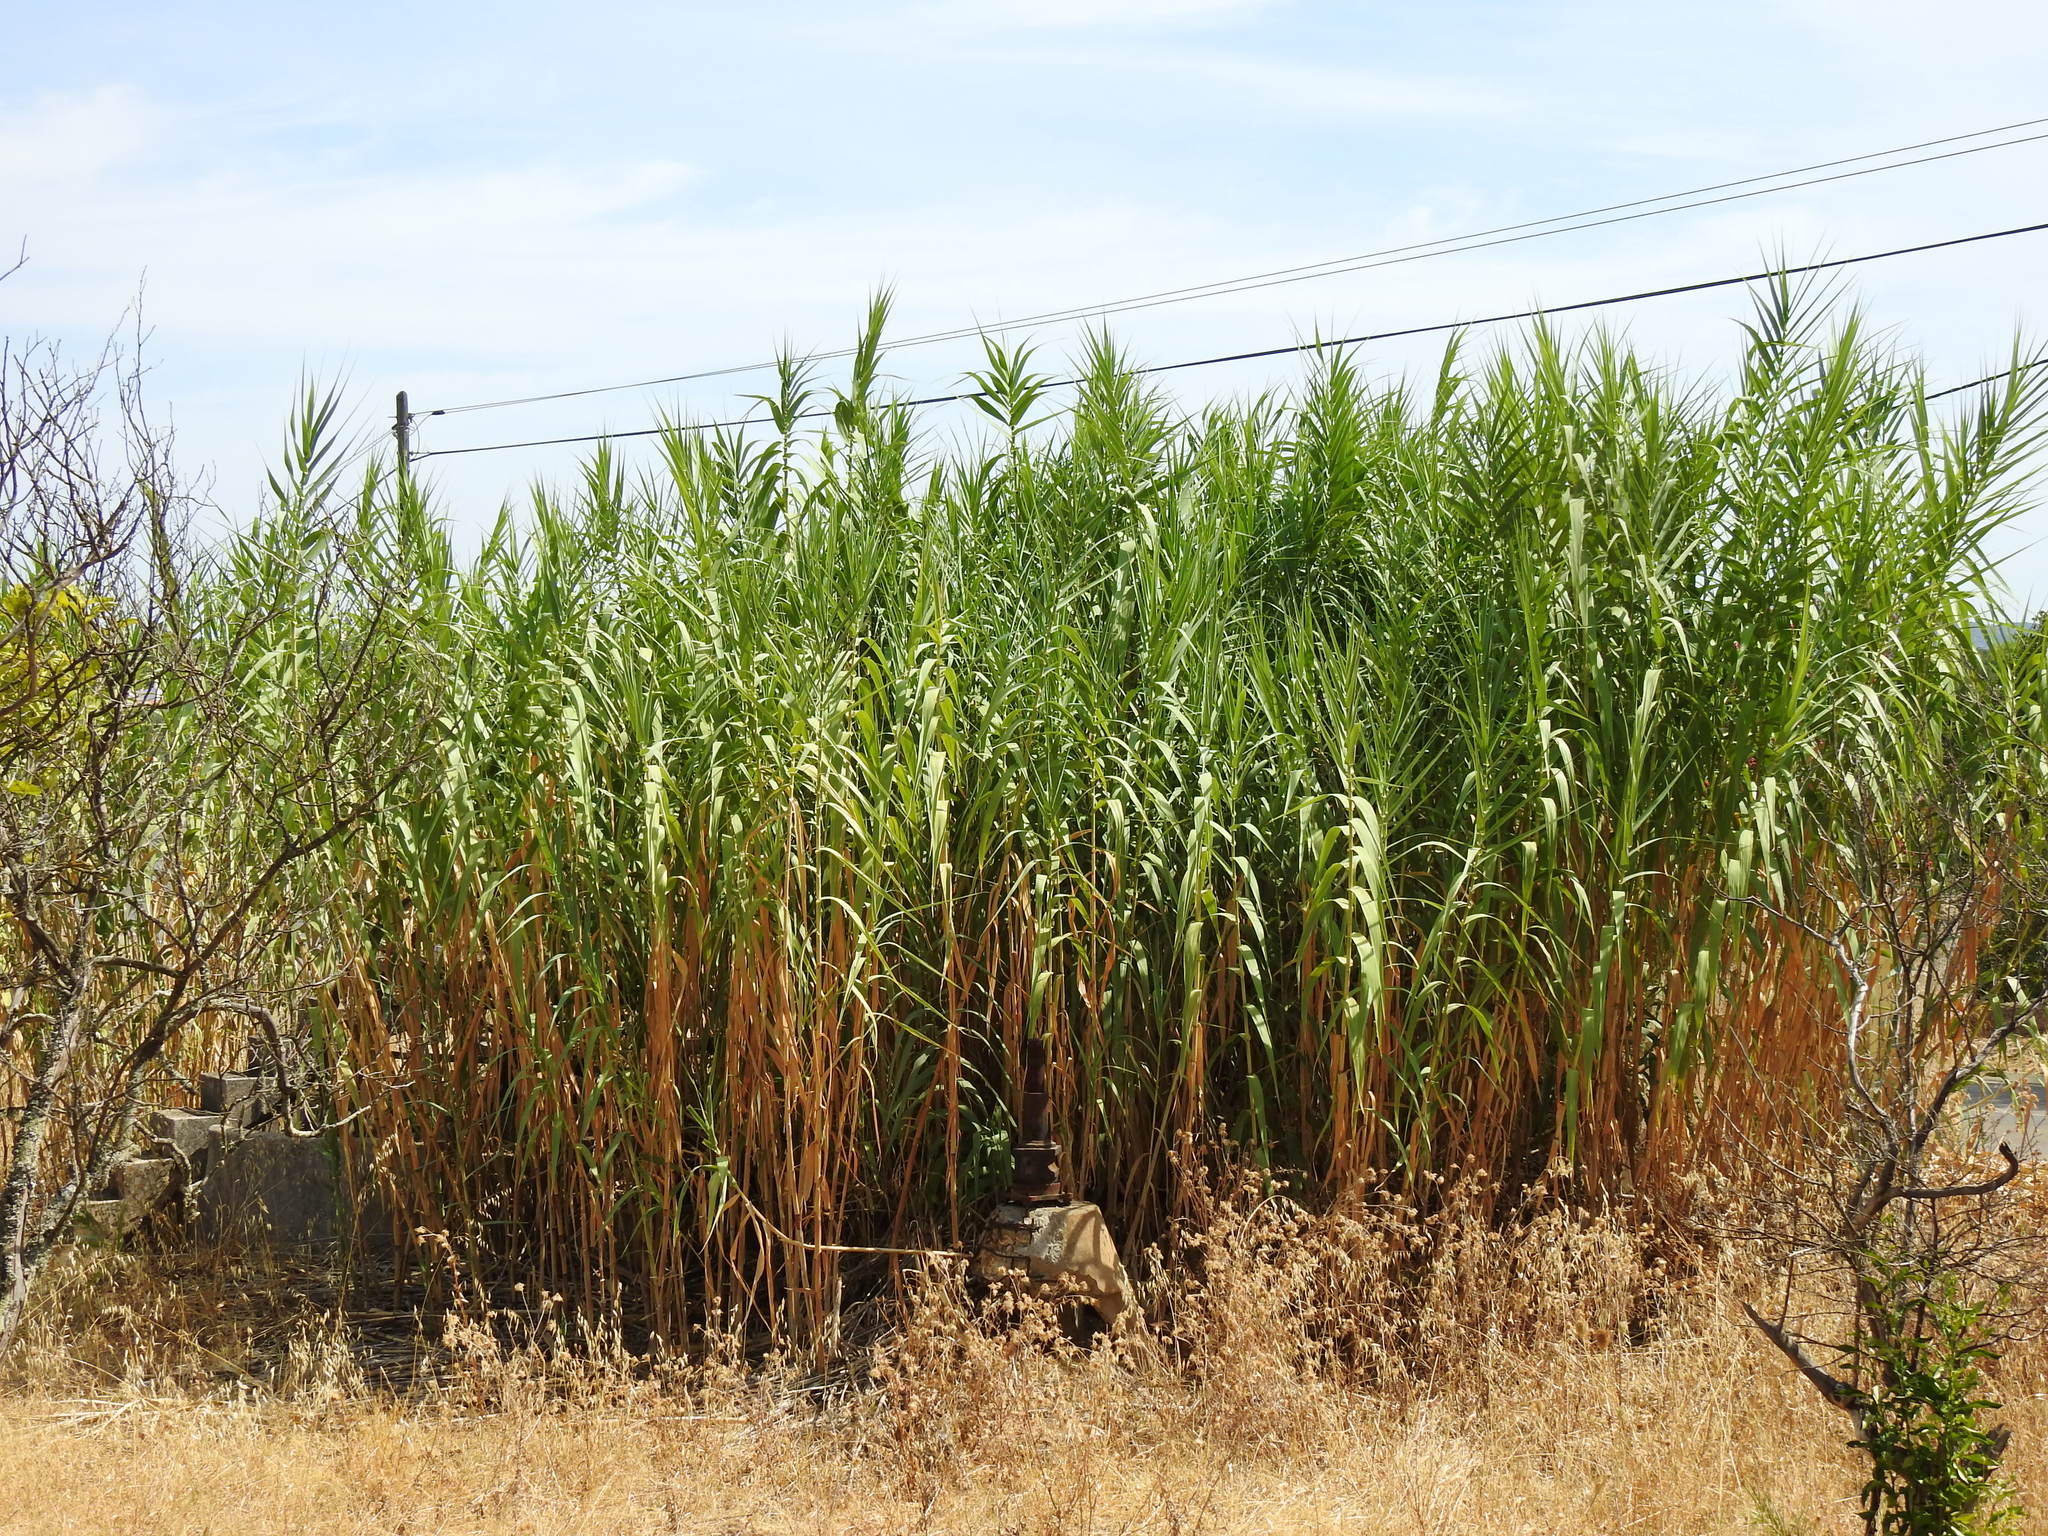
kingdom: Plantae
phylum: Tracheophyta
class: Liliopsida
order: Poales
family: Poaceae
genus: Arundo
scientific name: Arundo donax
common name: Giant reed
